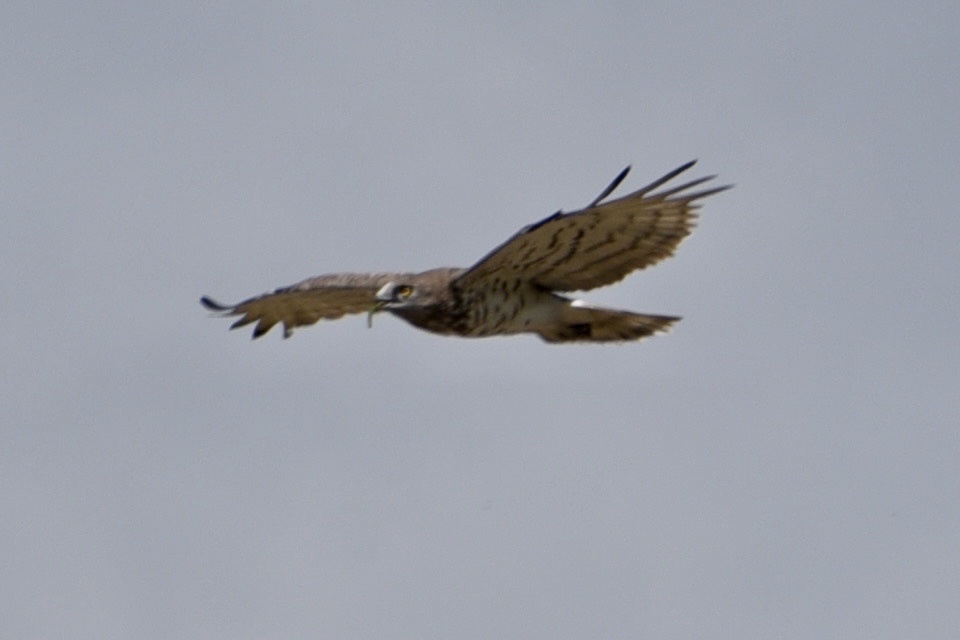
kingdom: Animalia
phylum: Chordata
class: Aves
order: Accipitriformes
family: Accipitridae
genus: Circaetus
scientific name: Circaetus gallicus
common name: Short-toed snake eagle
